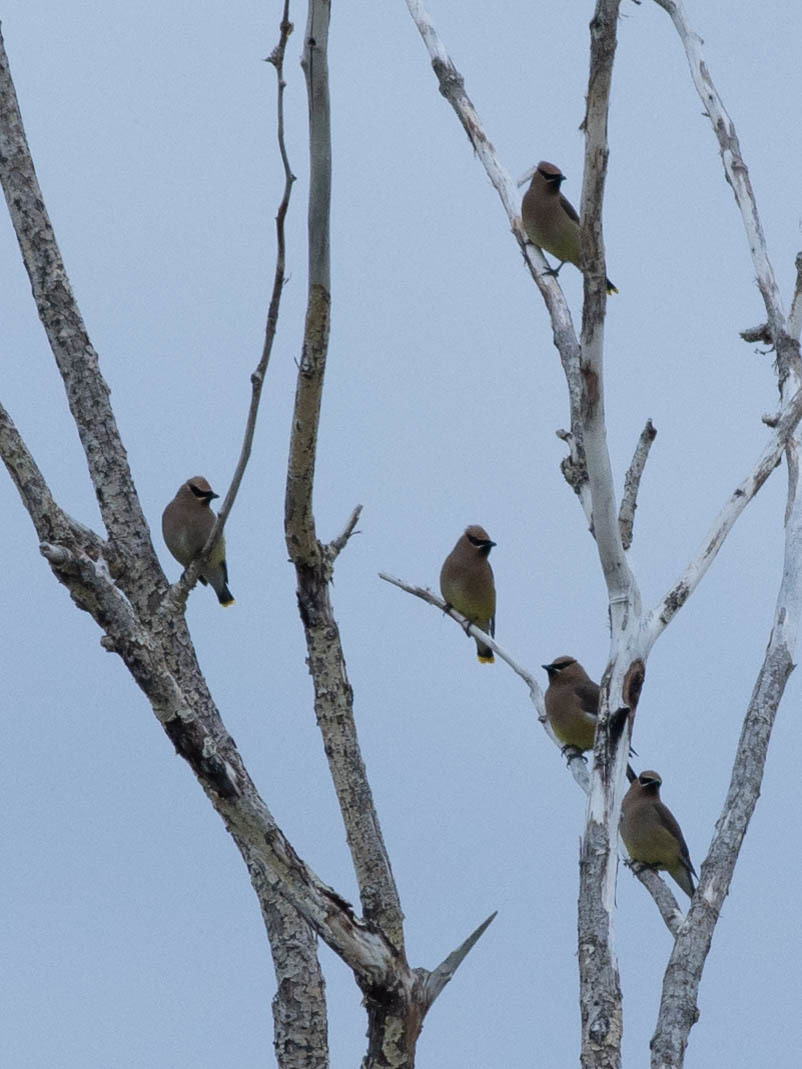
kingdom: Animalia
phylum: Chordata
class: Aves
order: Passeriformes
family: Bombycillidae
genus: Bombycilla
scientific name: Bombycilla cedrorum
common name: Cedar waxwing
